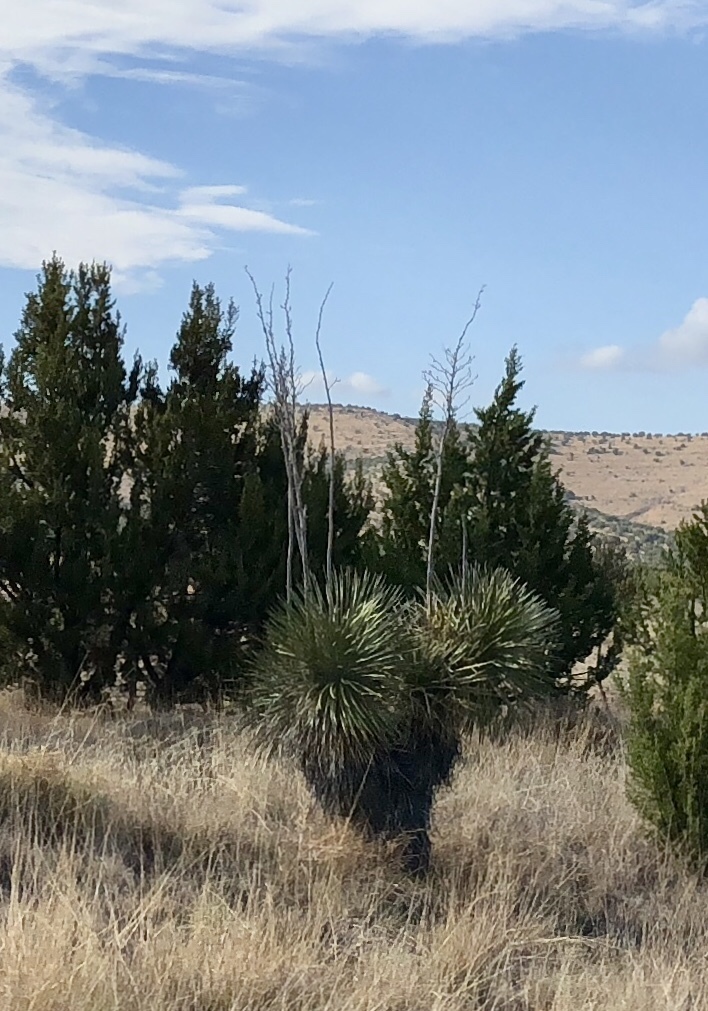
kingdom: Plantae
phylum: Tracheophyta
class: Liliopsida
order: Asparagales
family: Asparagaceae
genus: Yucca
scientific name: Yucca elata
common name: Palmella
